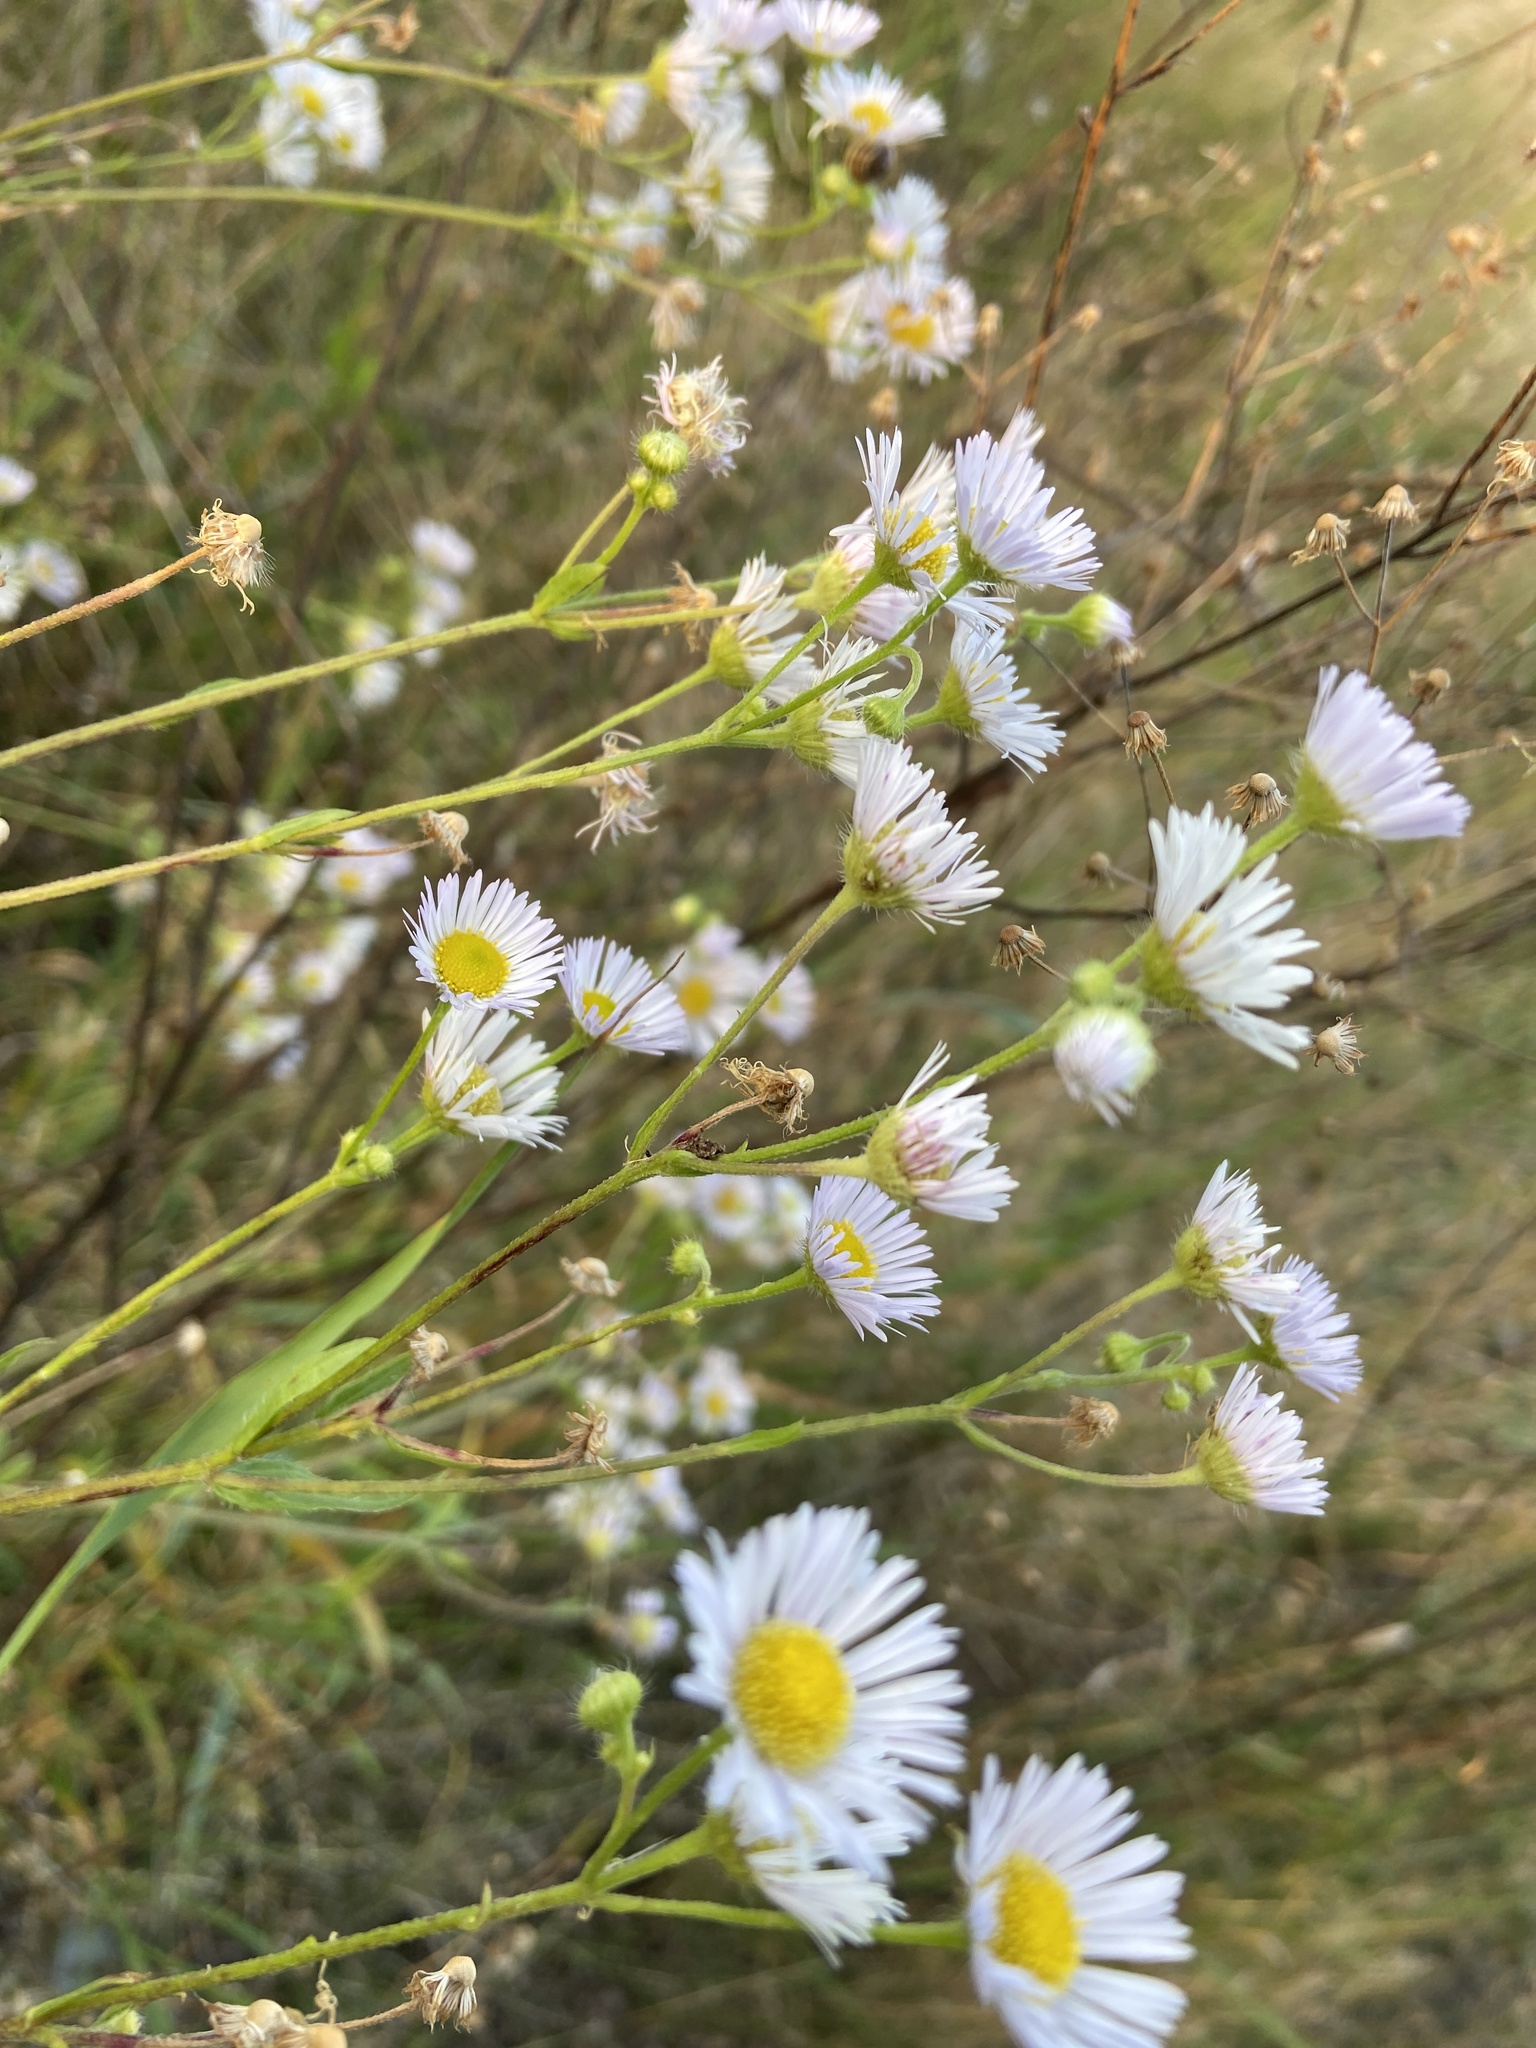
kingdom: Plantae
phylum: Tracheophyta
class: Magnoliopsida
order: Asterales
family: Asteraceae
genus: Erigeron
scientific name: Erigeron annuus
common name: Tall fleabane
